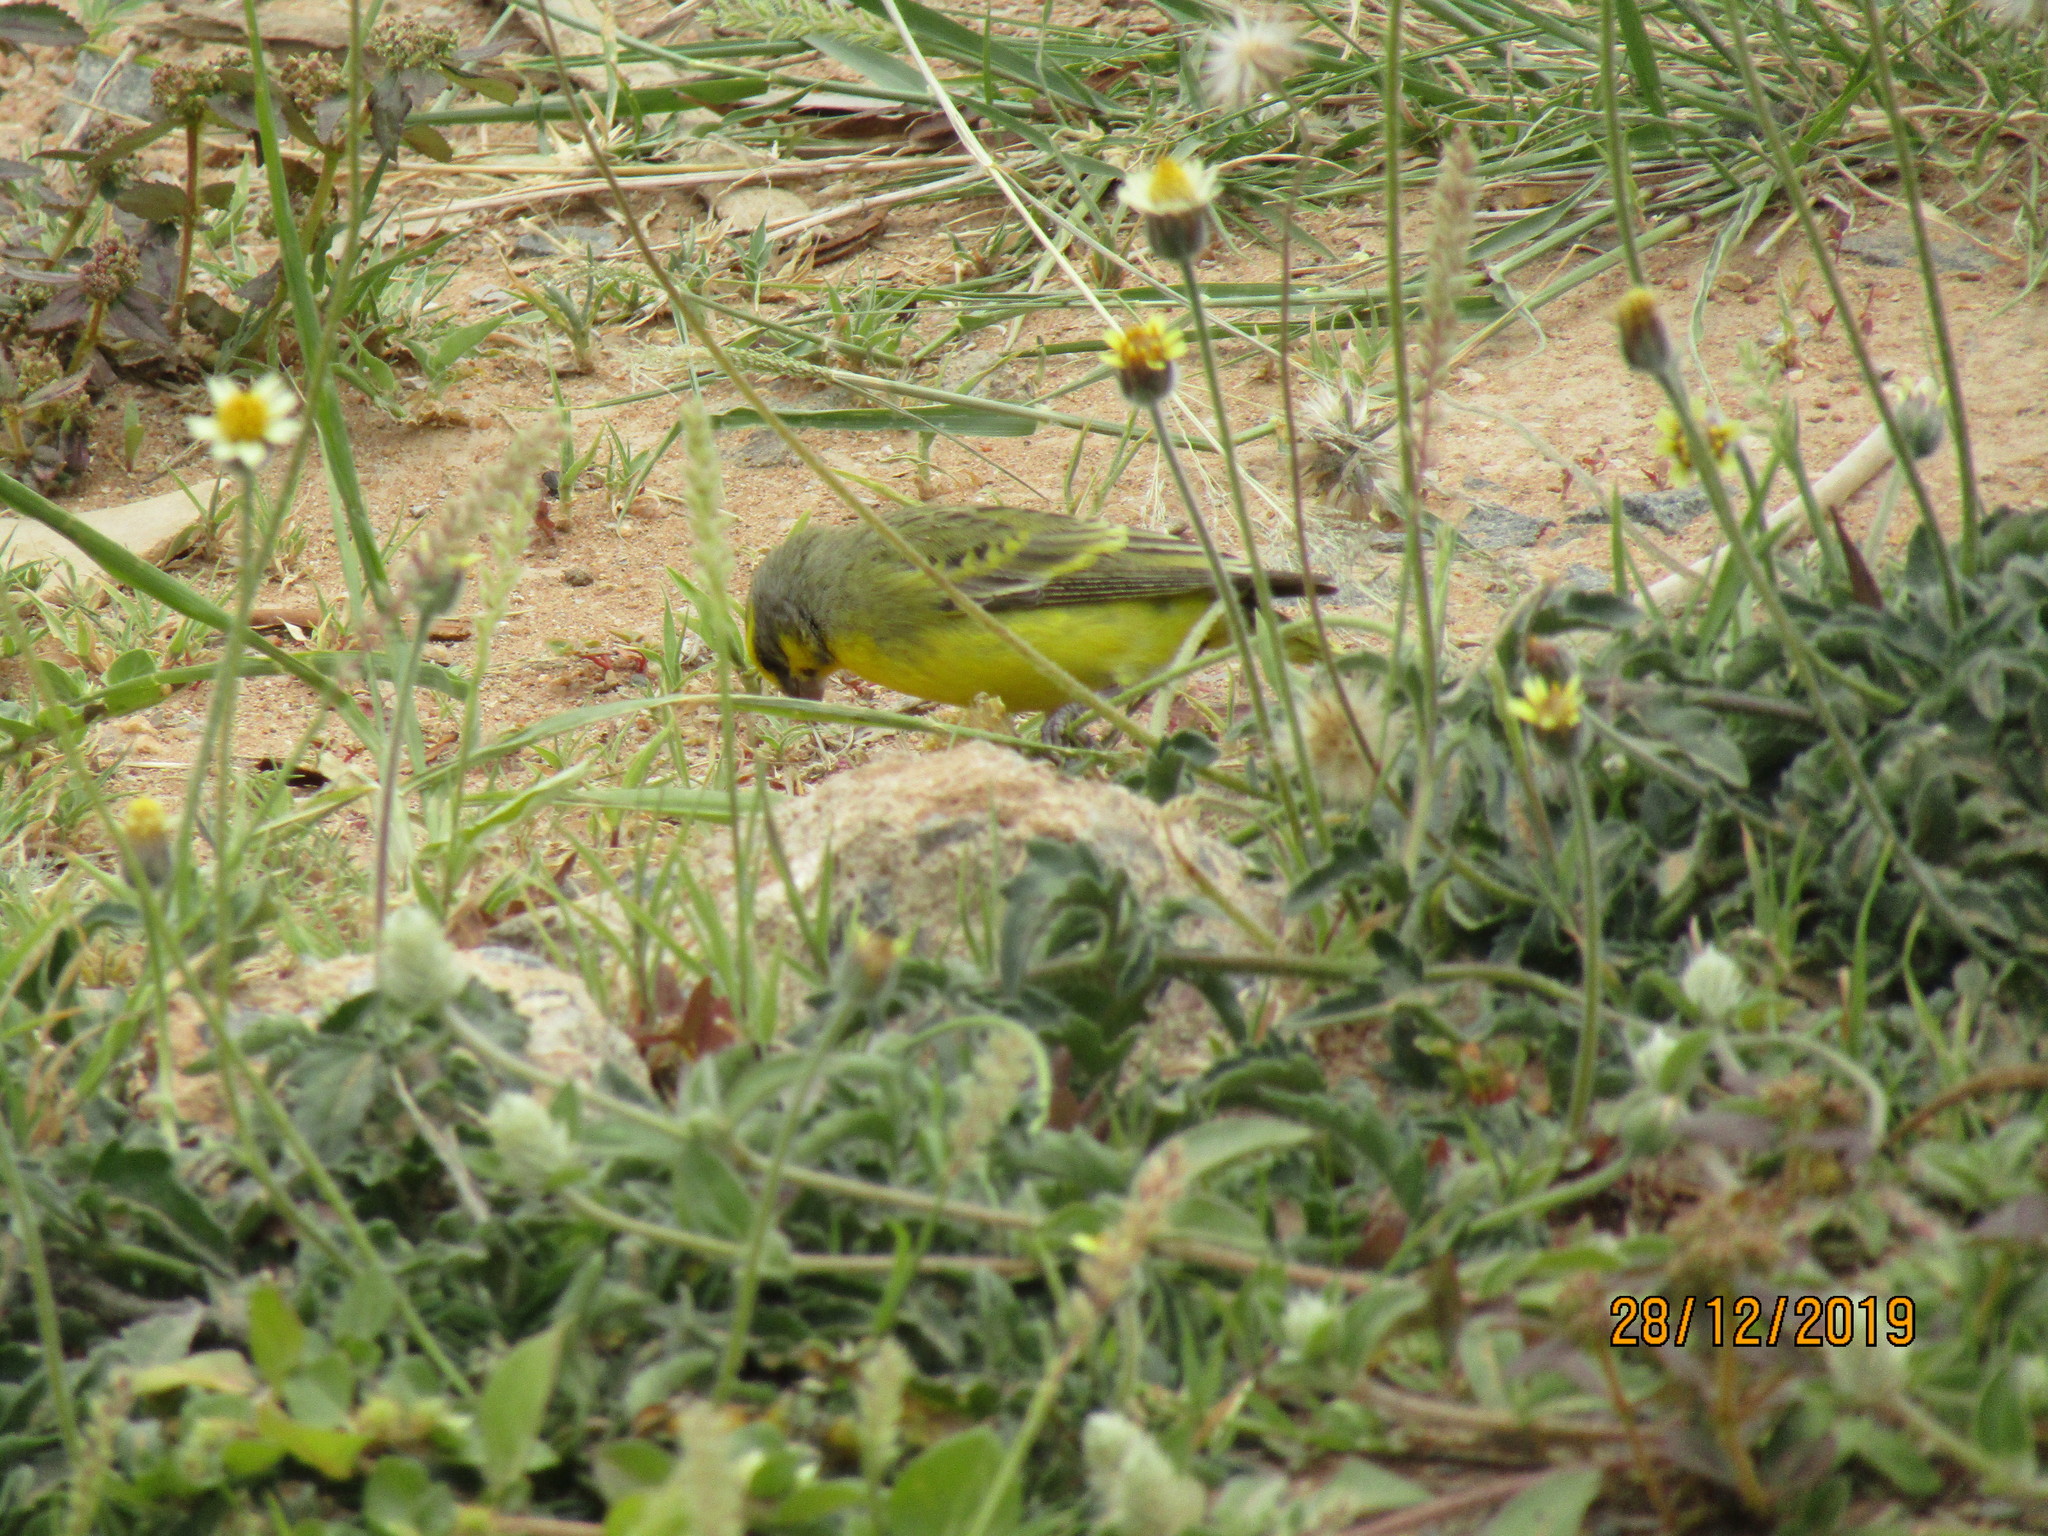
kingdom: Animalia
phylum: Chordata
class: Aves
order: Passeriformes
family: Fringillidae
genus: Crithagra
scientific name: Crithagra mozambica
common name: Yellow-fronted canary
